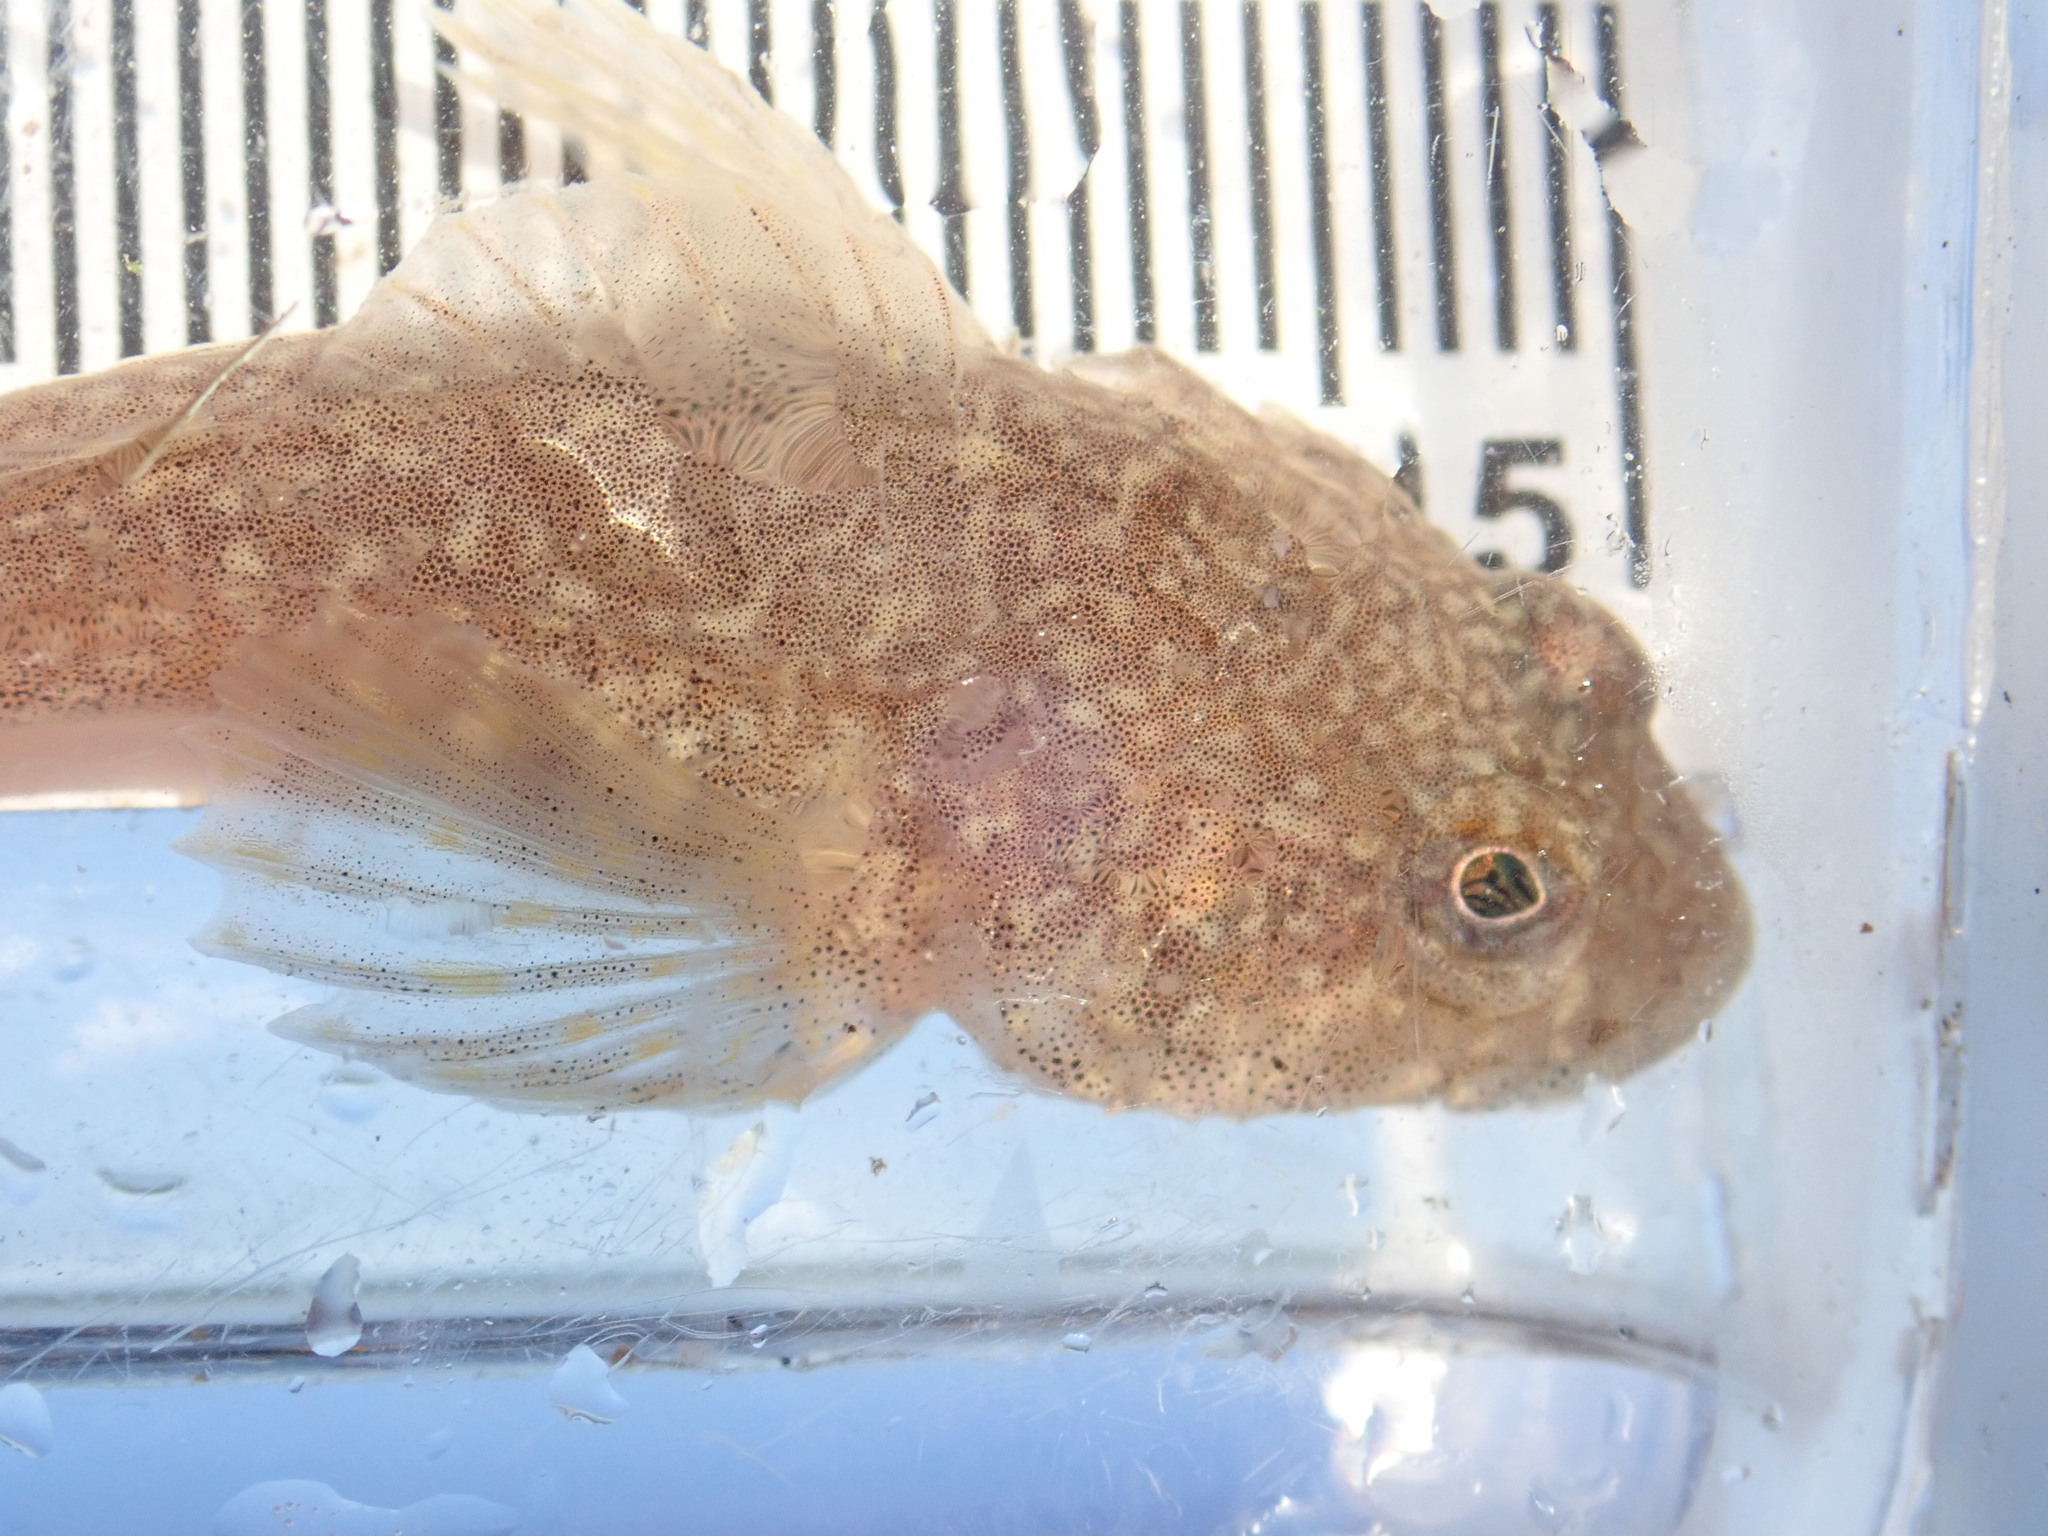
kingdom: Animalia
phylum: Chordata
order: Scorpaeniformes
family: Cottidae
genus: Cottus
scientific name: Cottus cognatus
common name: Slimy sculpin
